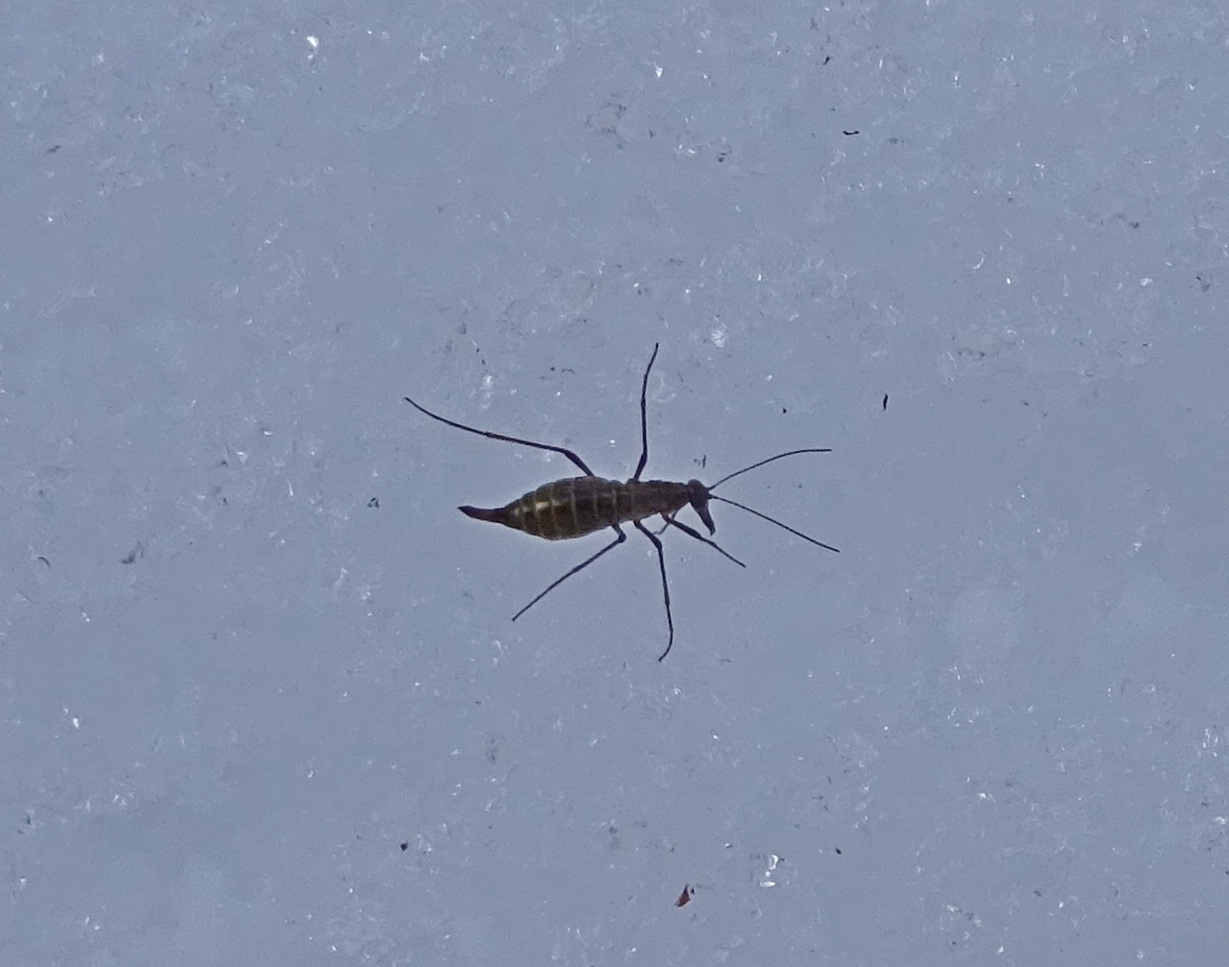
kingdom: Animalia
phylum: Arthropoda
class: Insecta
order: Mecoptera
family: Boreidae
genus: Boreus
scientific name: Boreus westwoodi
